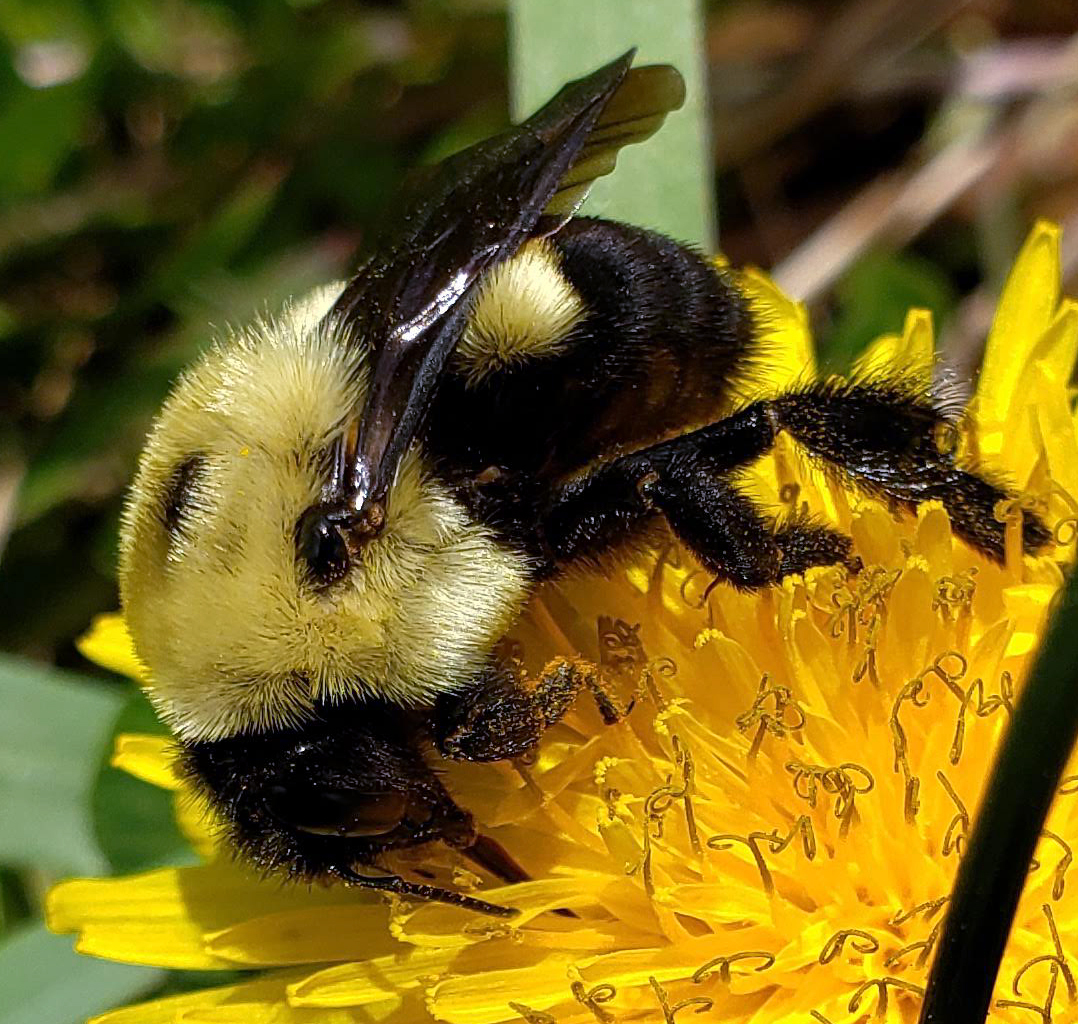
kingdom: Animalia
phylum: Arthropoda
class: Insecta
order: Hymenoptera
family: Apidae
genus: Bombus
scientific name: Bombus griseocollis
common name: Brown-belted bumble bee
